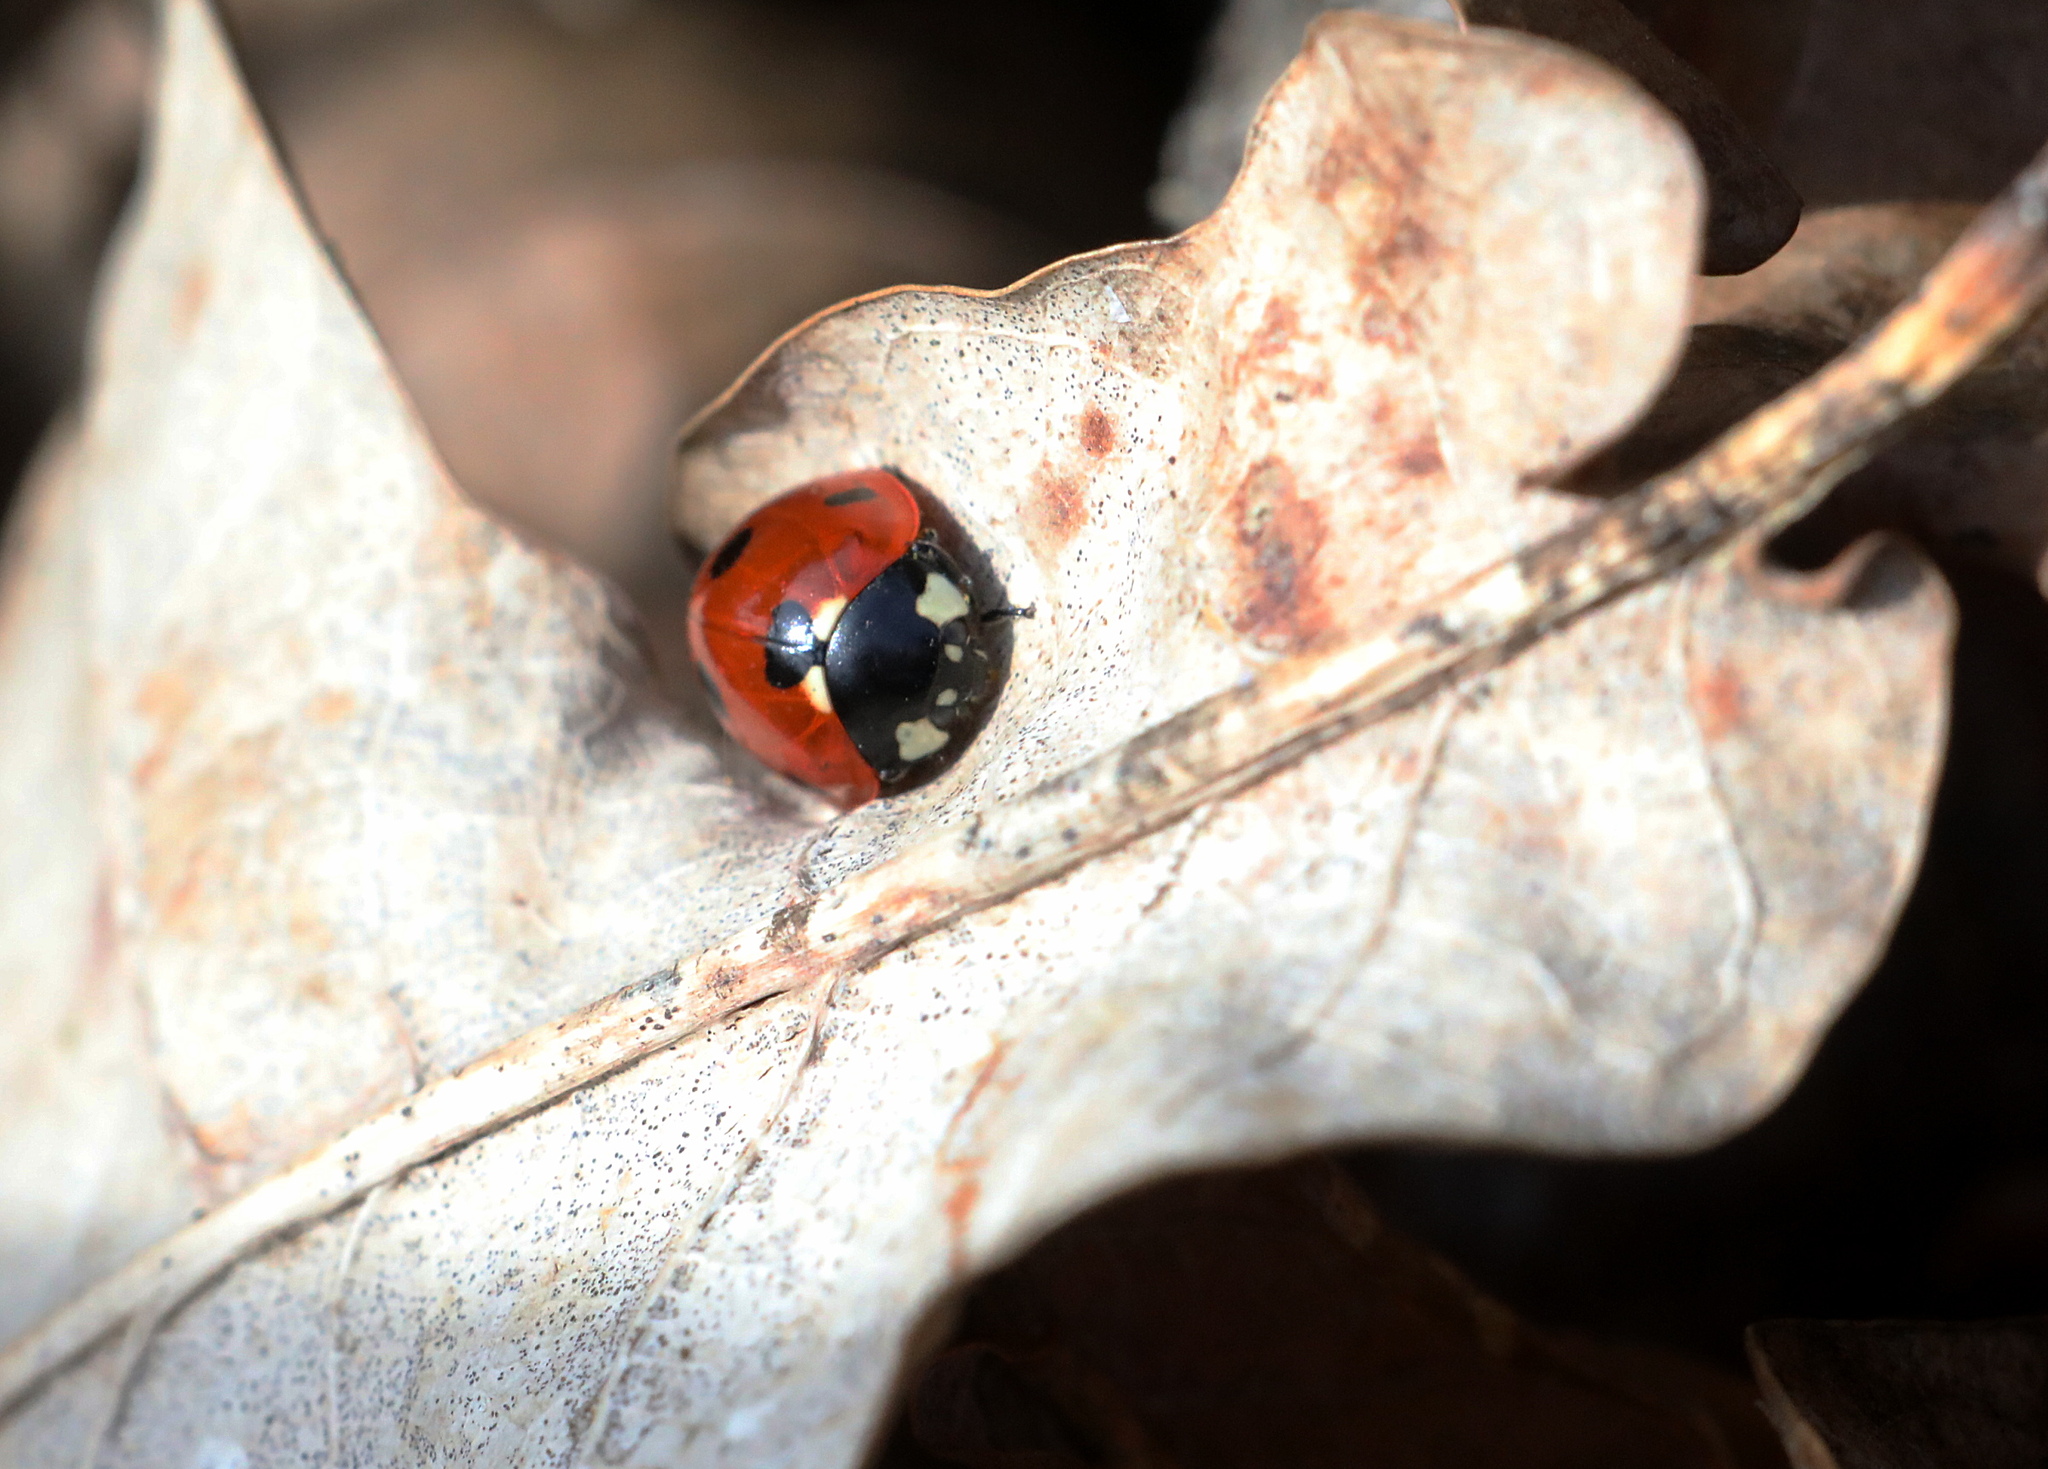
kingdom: Animalia
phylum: Arthropoda
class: Insecta
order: Coleoptera
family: Coccinellidae
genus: Coccinella
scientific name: Coccinella septempunctata
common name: Sevenspotted lady beetle
